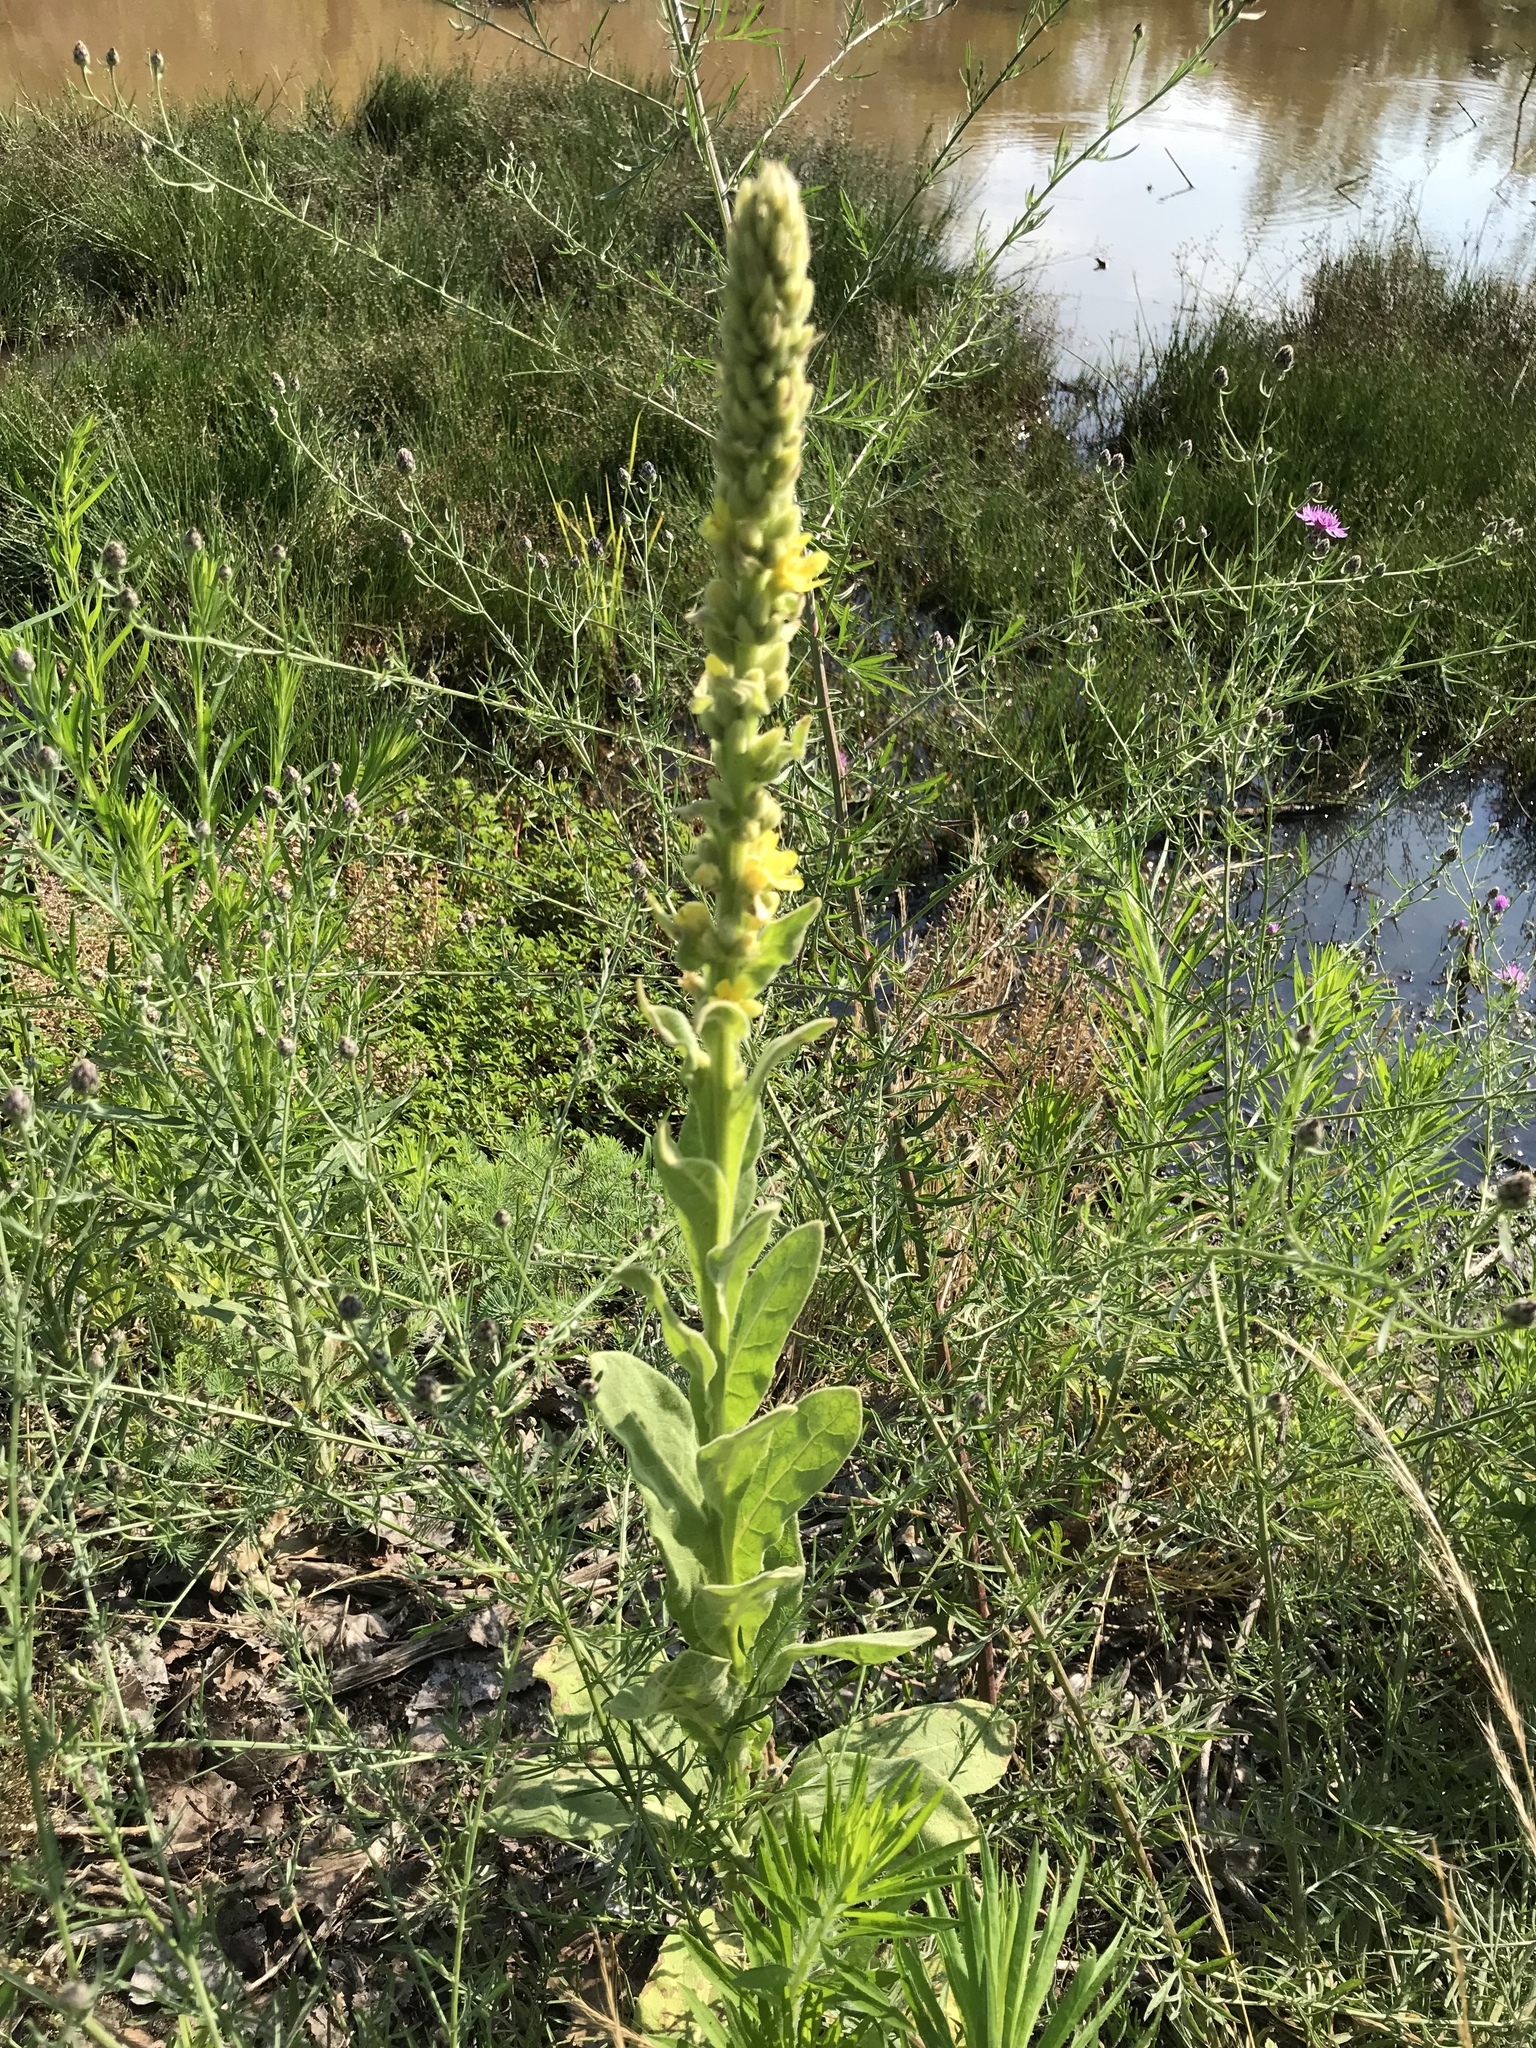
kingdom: Plantae
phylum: Tracheophyta
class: Magnoliopsida
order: Lamiales
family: Scrophulariaceae
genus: Verbascum
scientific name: Verbascum thapsus
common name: Common mullein
